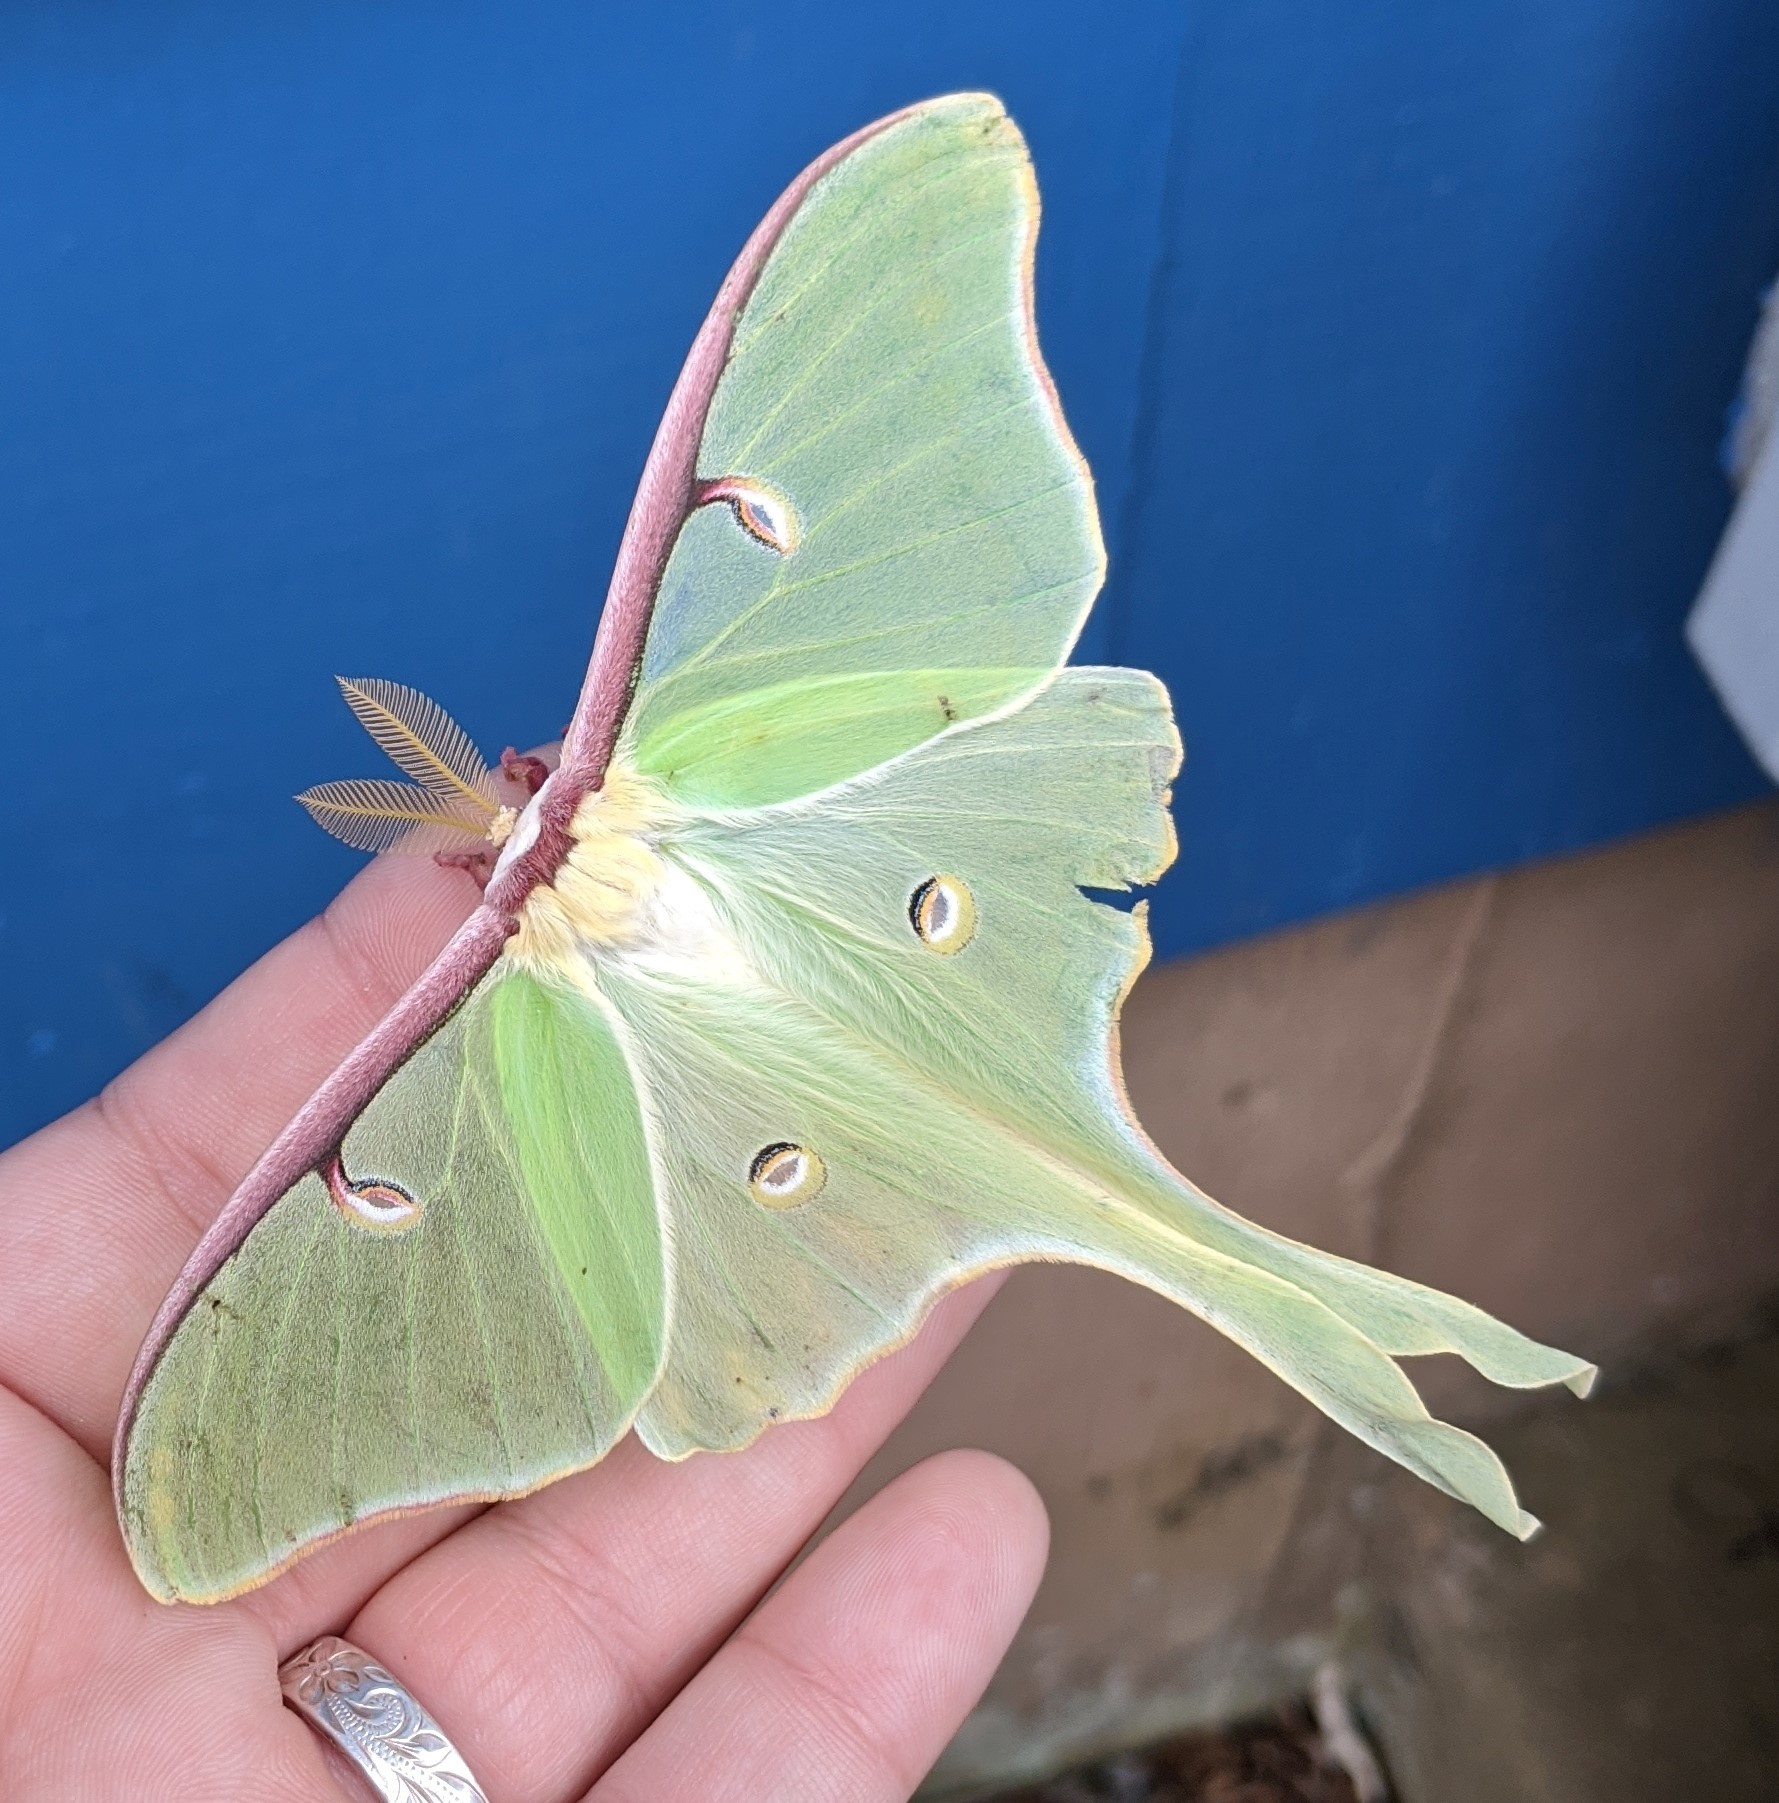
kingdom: Animalia
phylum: Arthropoda
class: Insecta
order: Lepidoptera
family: Saturniidae
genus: Actias
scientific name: Actias luna
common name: Luna moth
